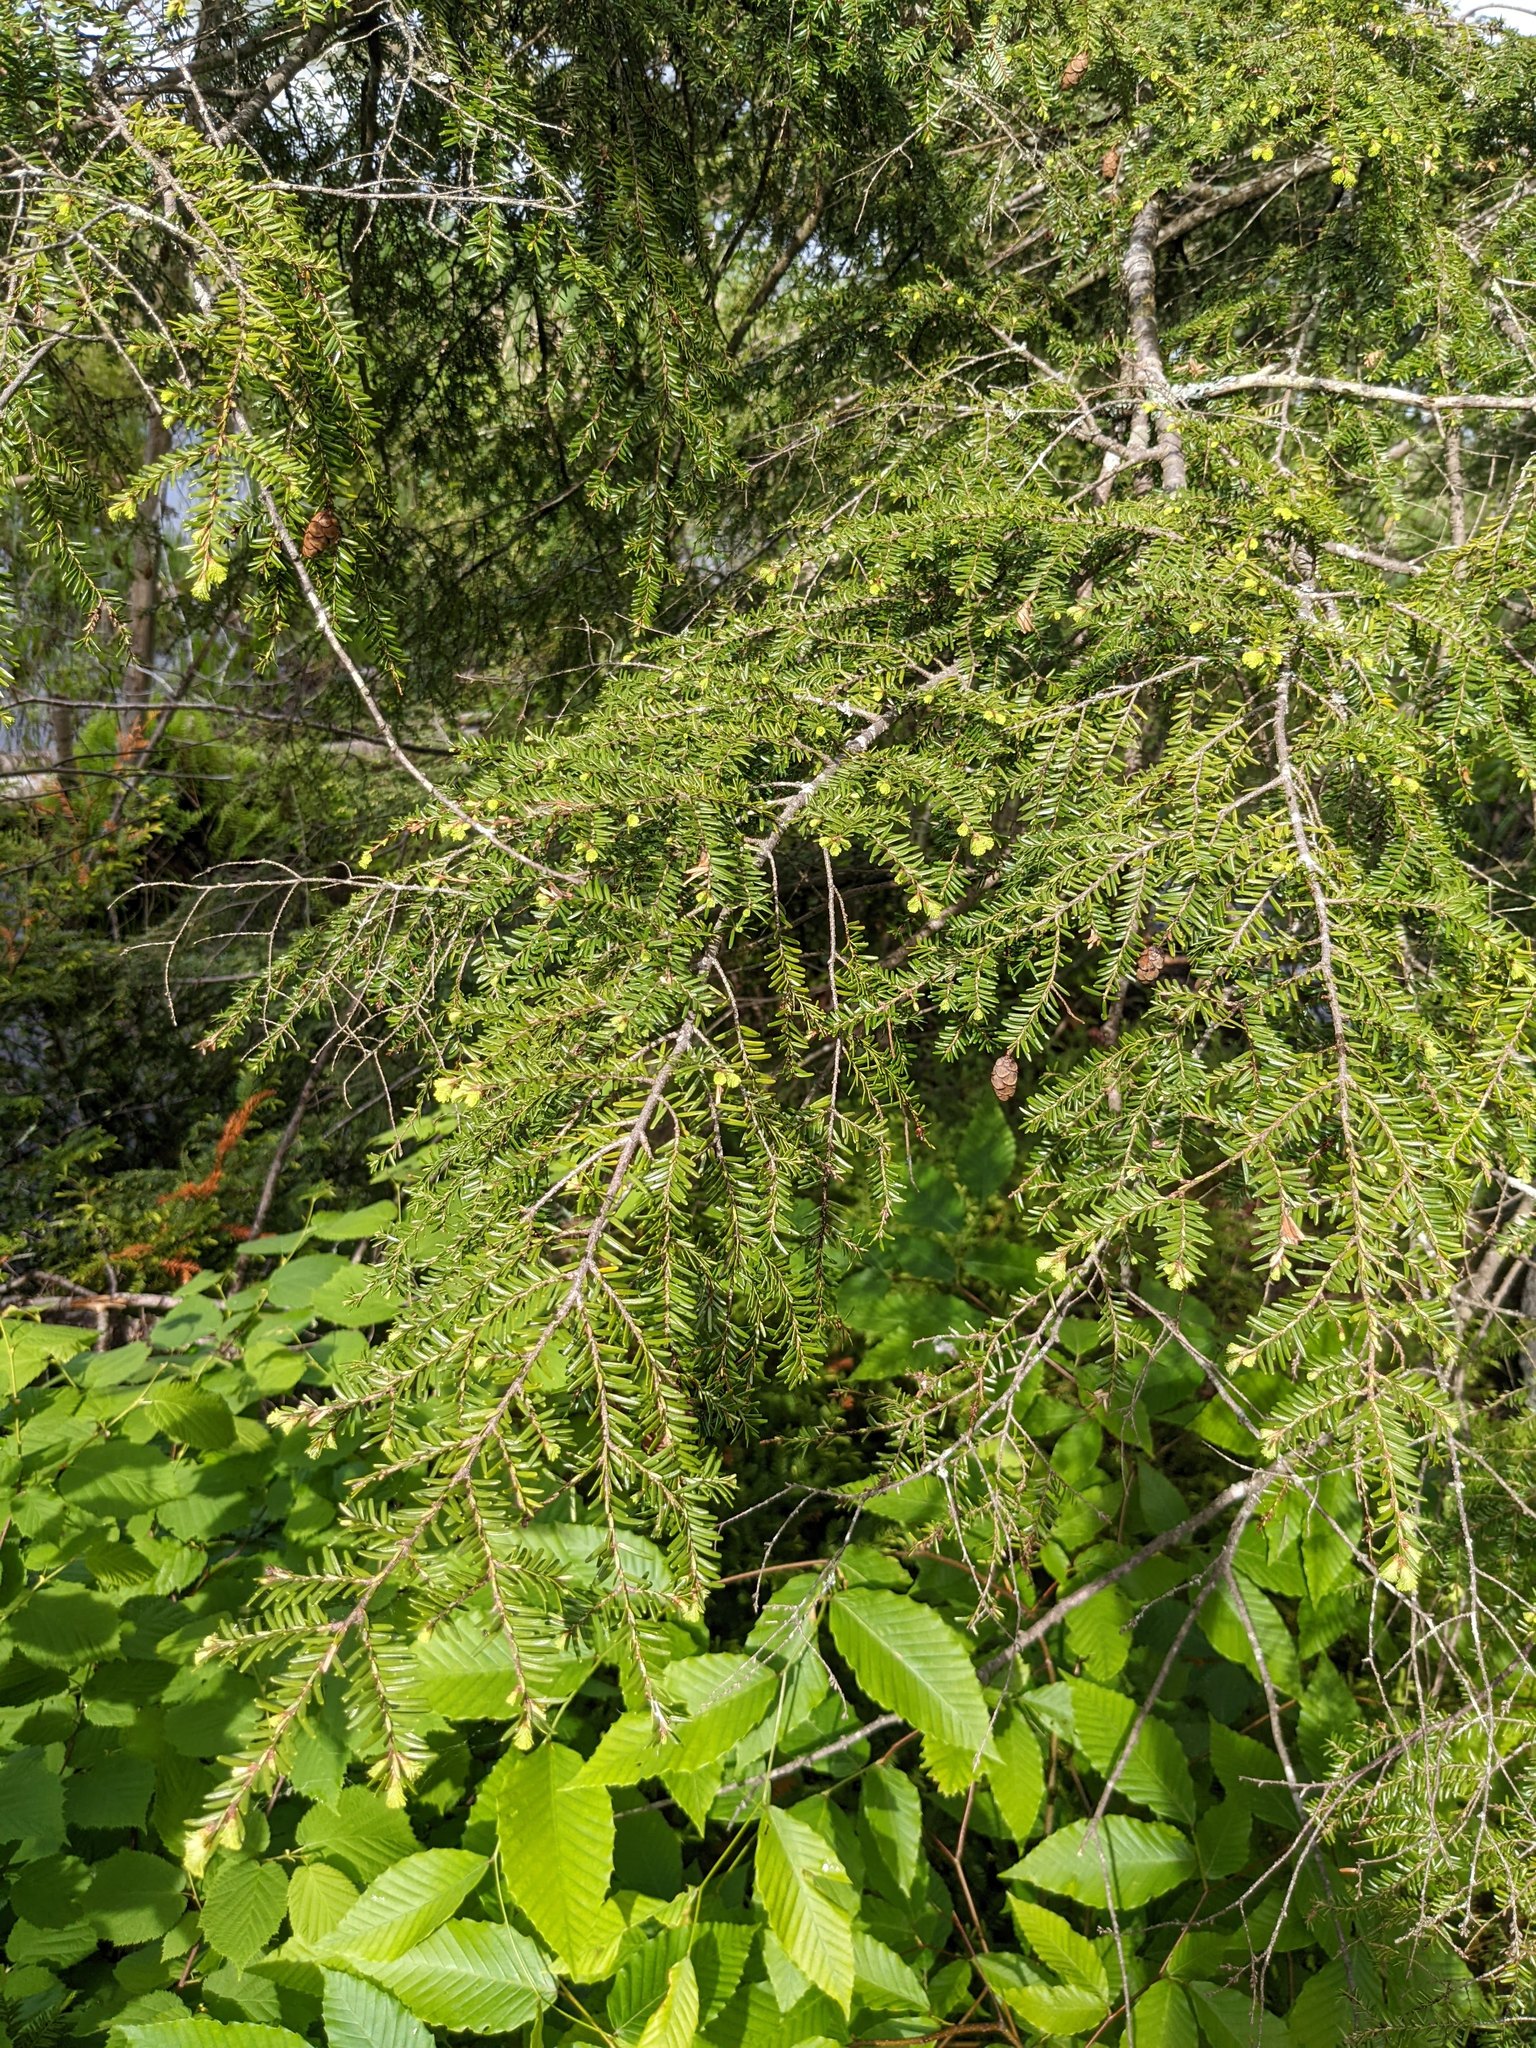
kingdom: Plantae
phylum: Tracheophyta
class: Pinopsida
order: Pinales
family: Pinaceae
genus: Tsuga
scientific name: Tsuga canadensis
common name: Eastern hemlock
